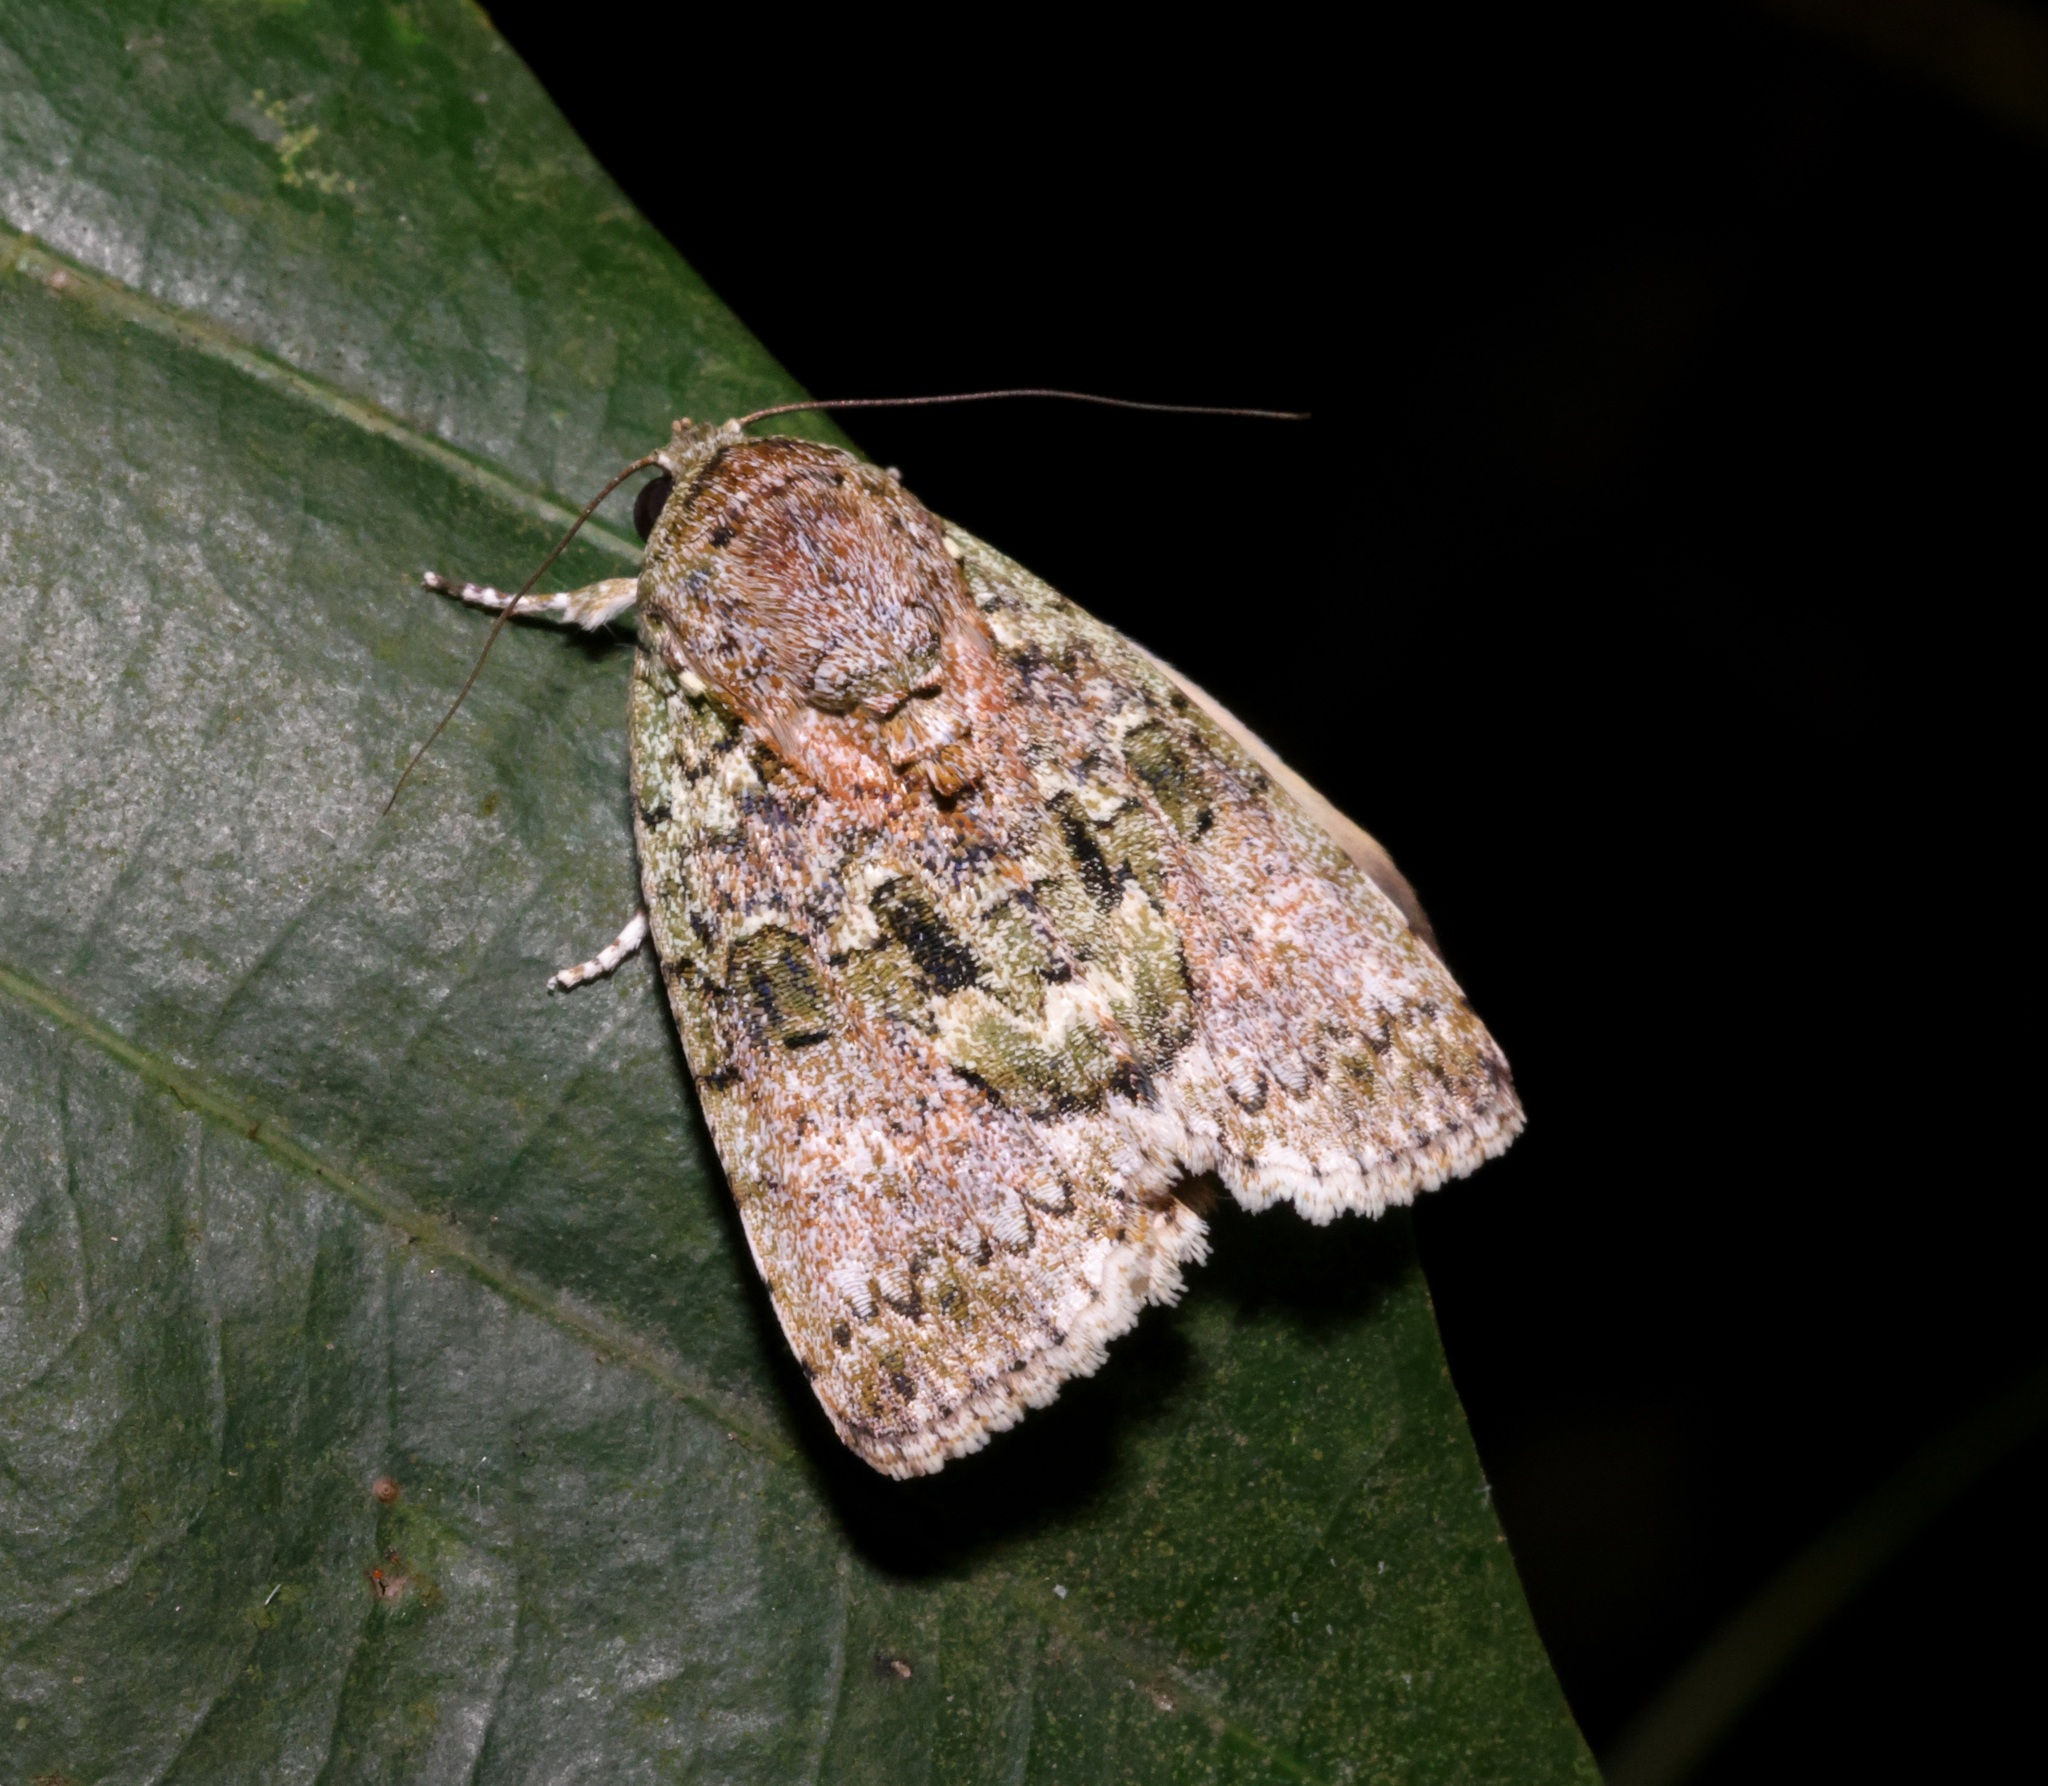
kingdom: Animalia
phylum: Arthropoda
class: Insecta
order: Lepidoptera
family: Nolidae
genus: Blenina
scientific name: Blenina quinaria
